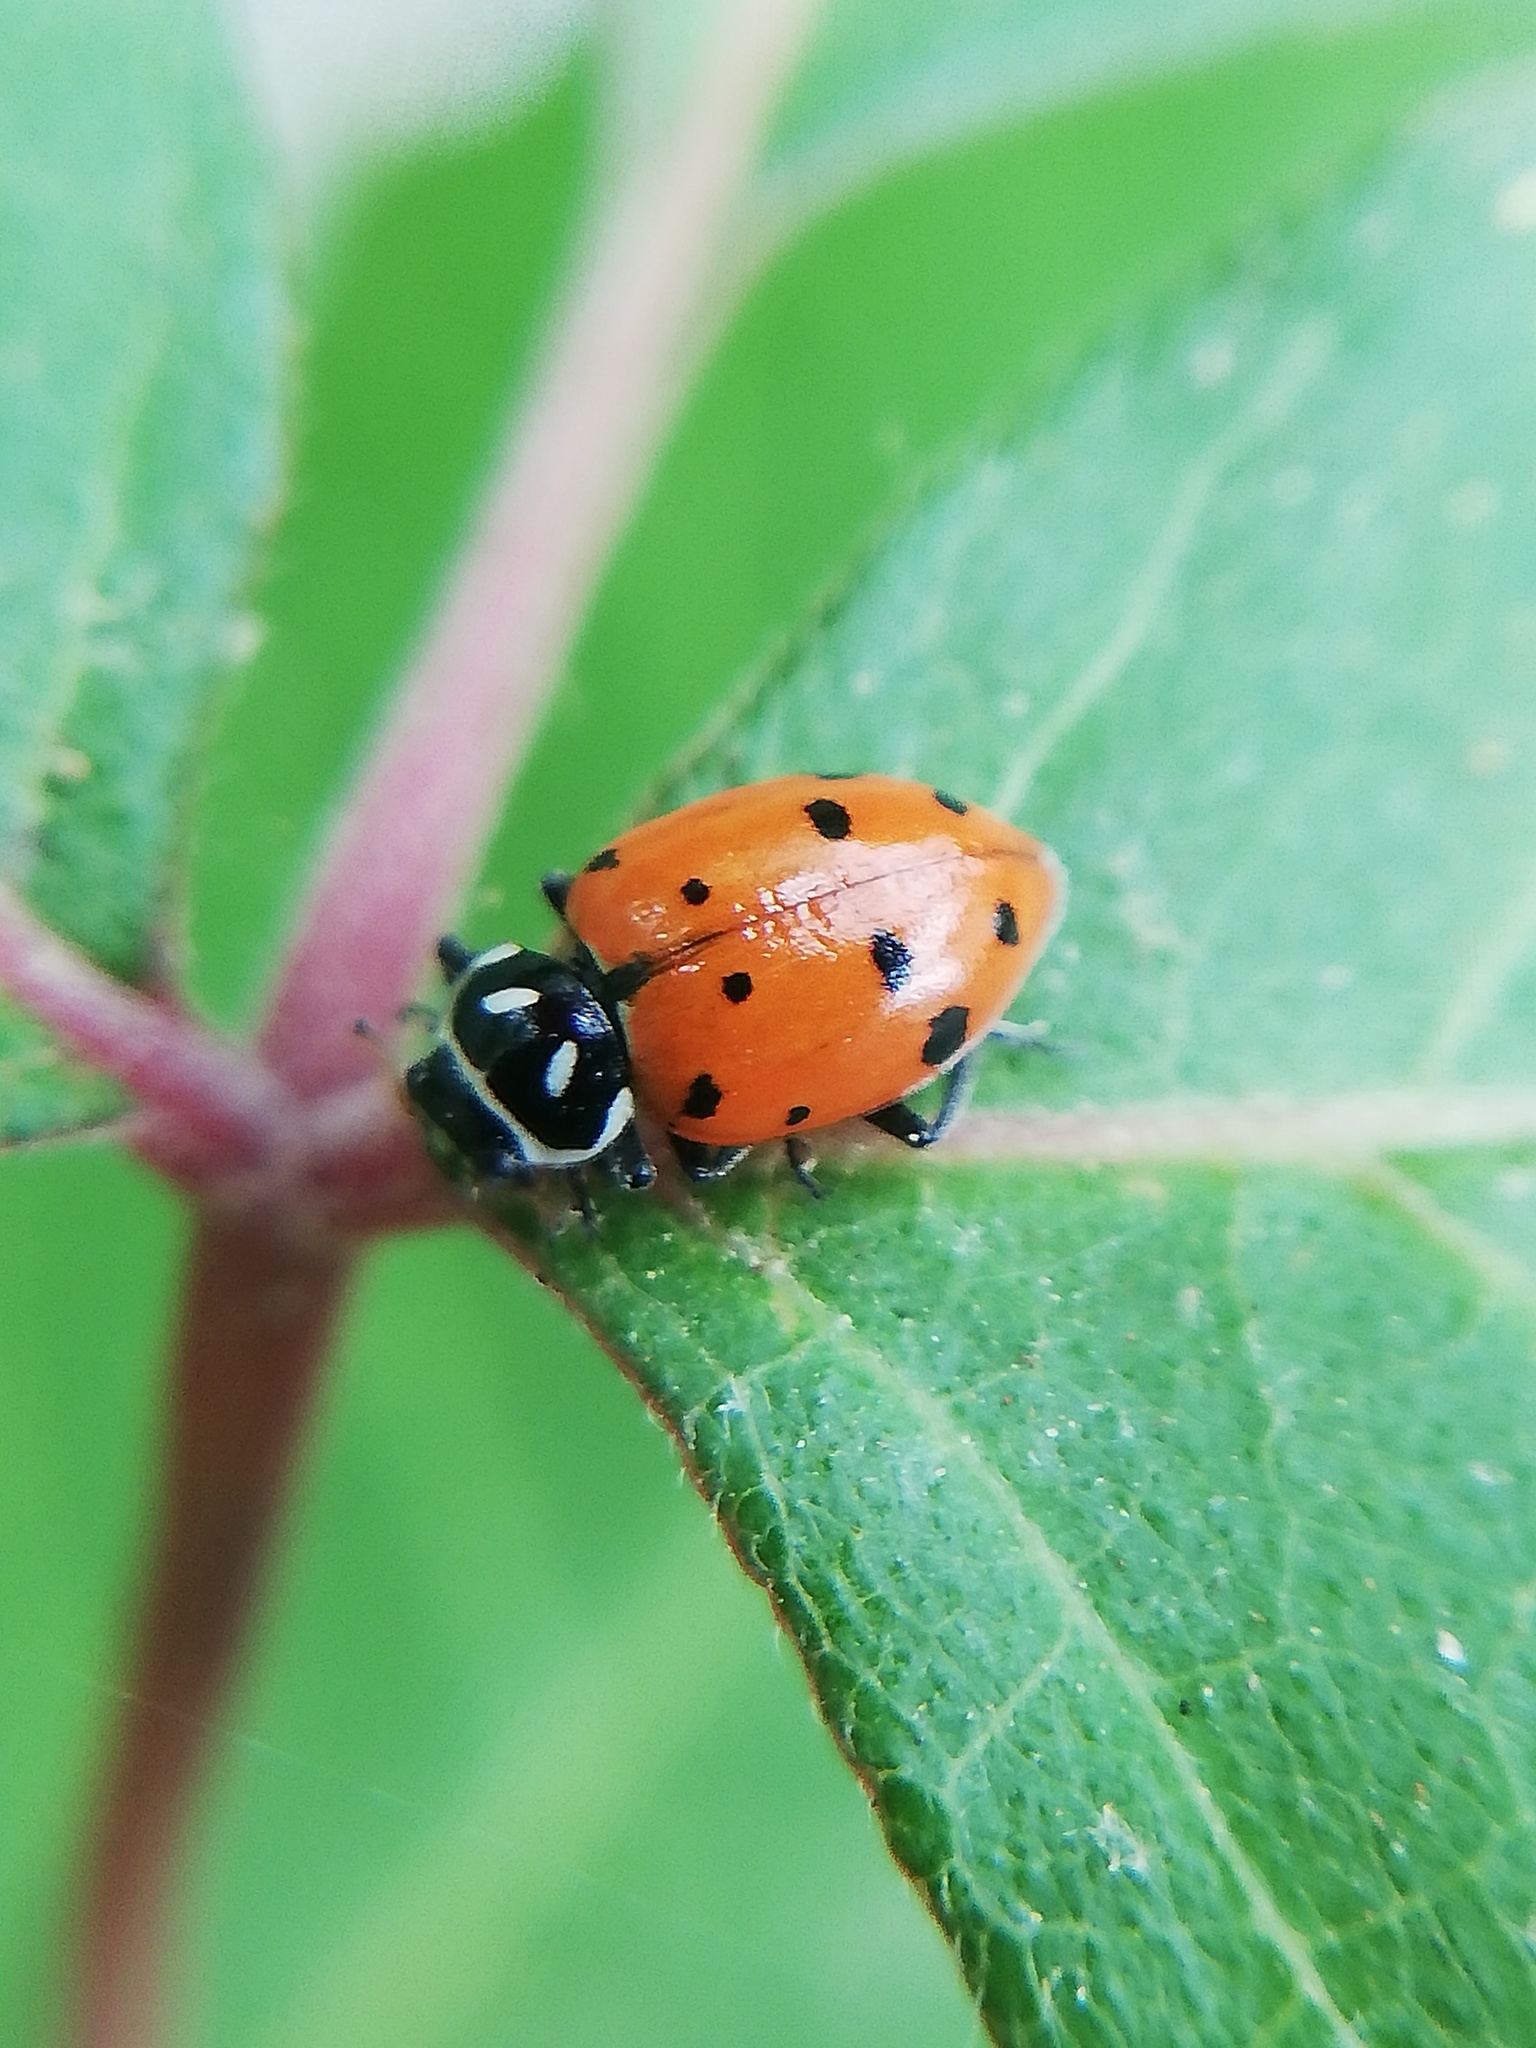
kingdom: Animalia
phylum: Arthropoda
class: Insecta
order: Coleoptera
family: Coccinellidae
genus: Hippodamia
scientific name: Hippodamia convergens
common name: Convergent lady beetle
